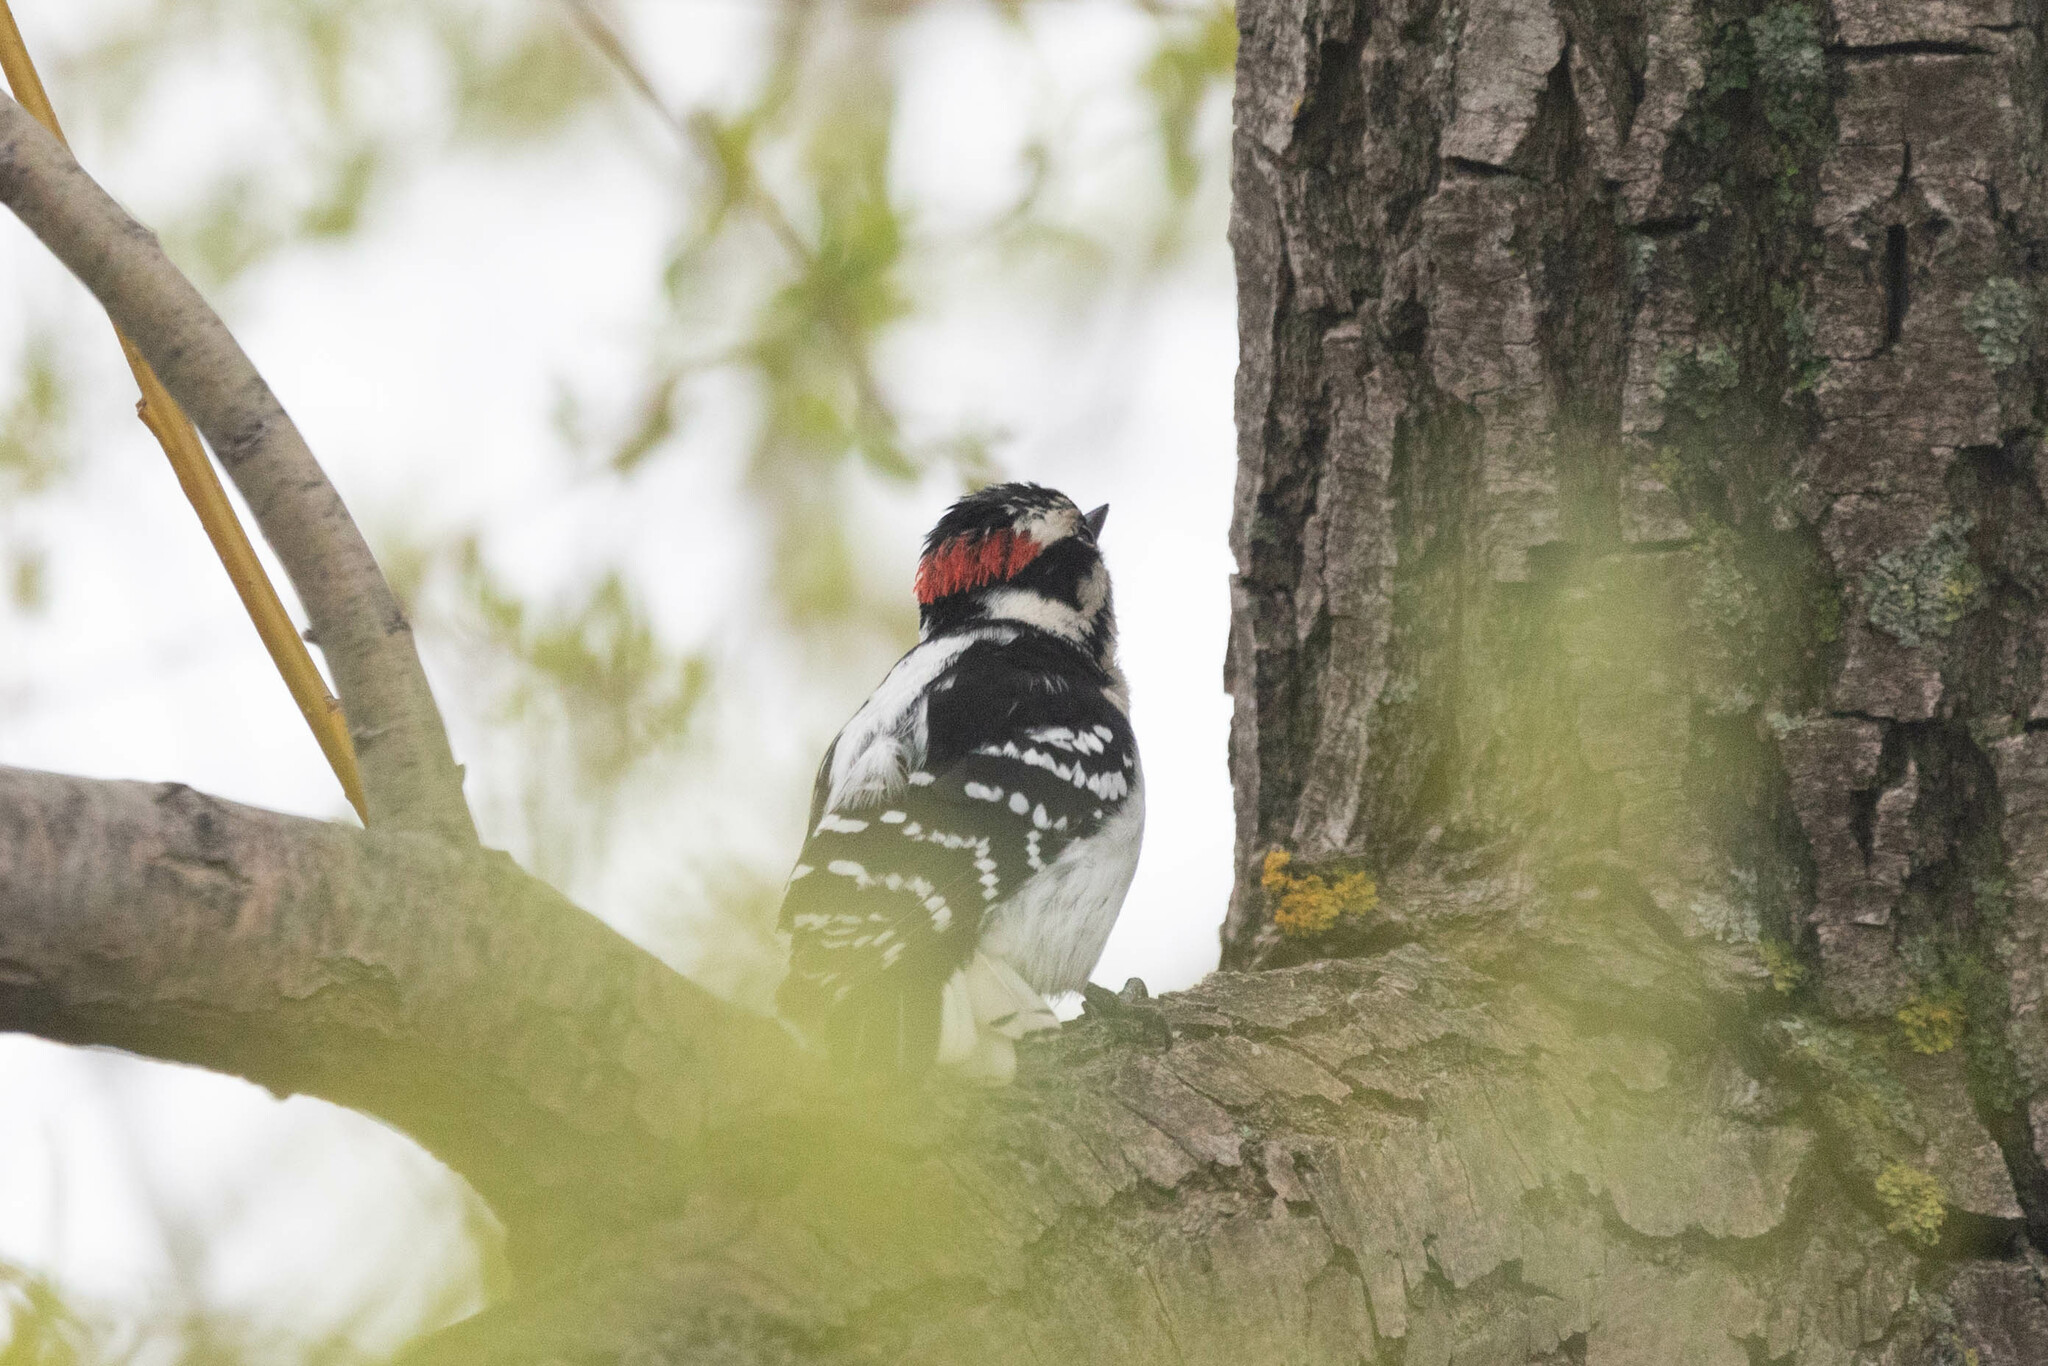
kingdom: Animalia
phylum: Chordata
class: Aves
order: Piciformes
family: Picidae
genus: Dryobates
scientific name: Dryobates pubescens
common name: Downy woodpecker
